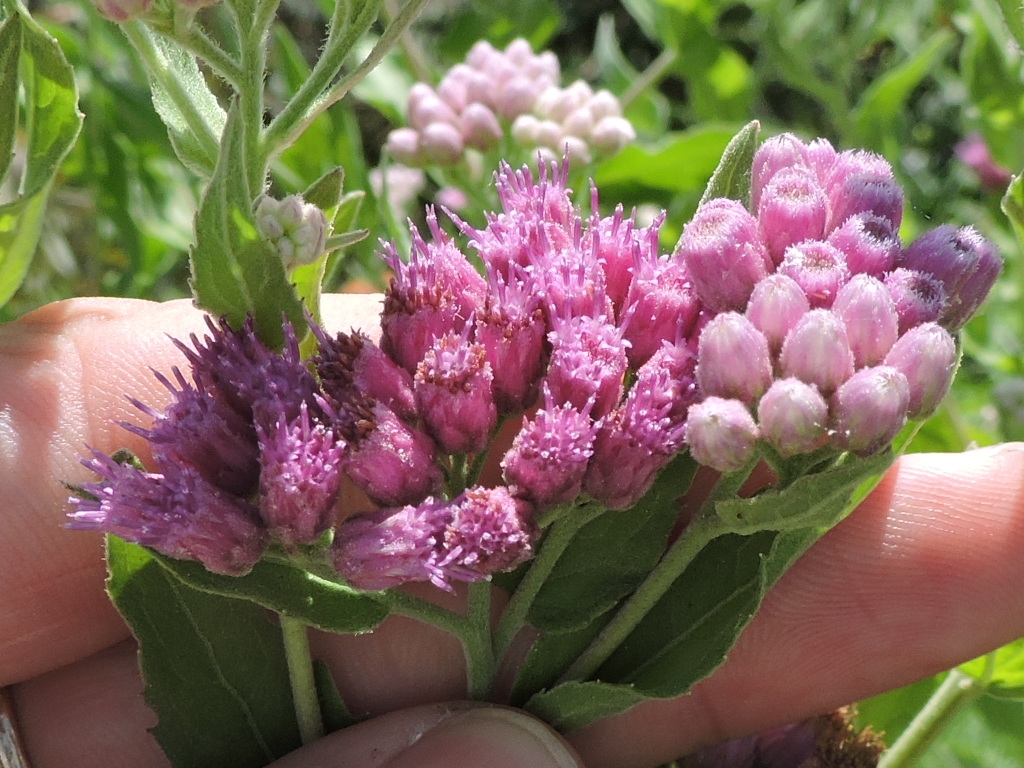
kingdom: Plantae
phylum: Tracheophyta
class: Magnoliopsida
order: Asterales
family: Asteraceae
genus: Pluchea
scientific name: Pluchea odorata
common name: Saltmarsh fleabane
